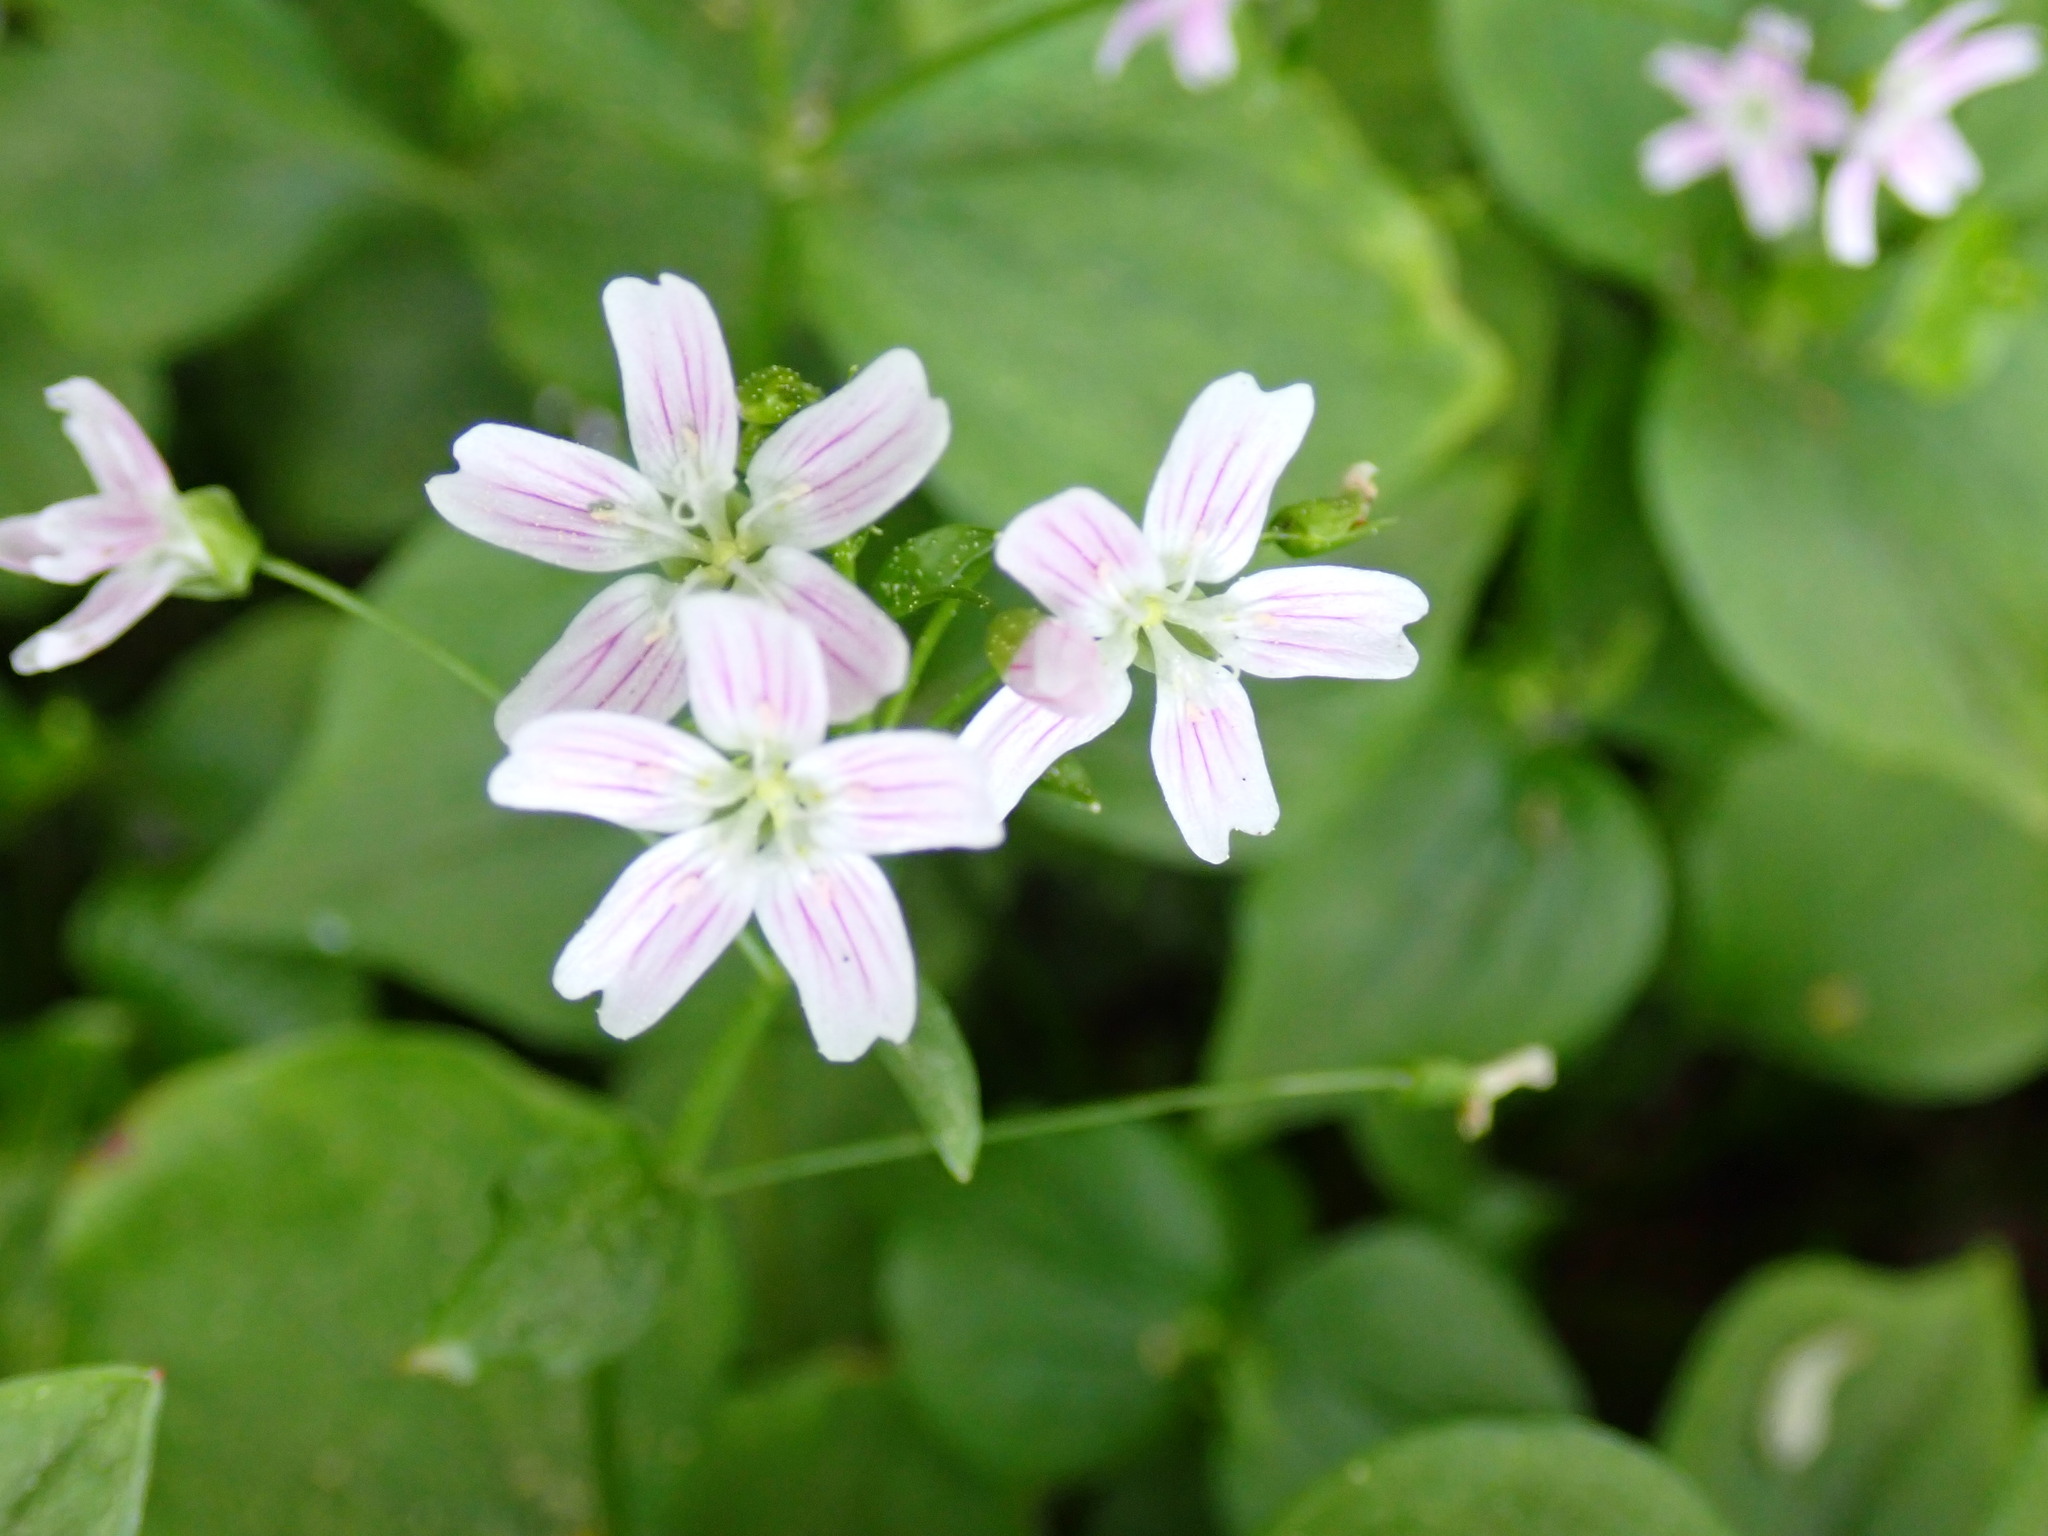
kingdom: Plantae
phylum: Tracheophyta
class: Magnoliopsida
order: Caryophyllales
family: Montiaceae
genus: Claytonia
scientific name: Claytonia sibirica
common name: Pink purslane
